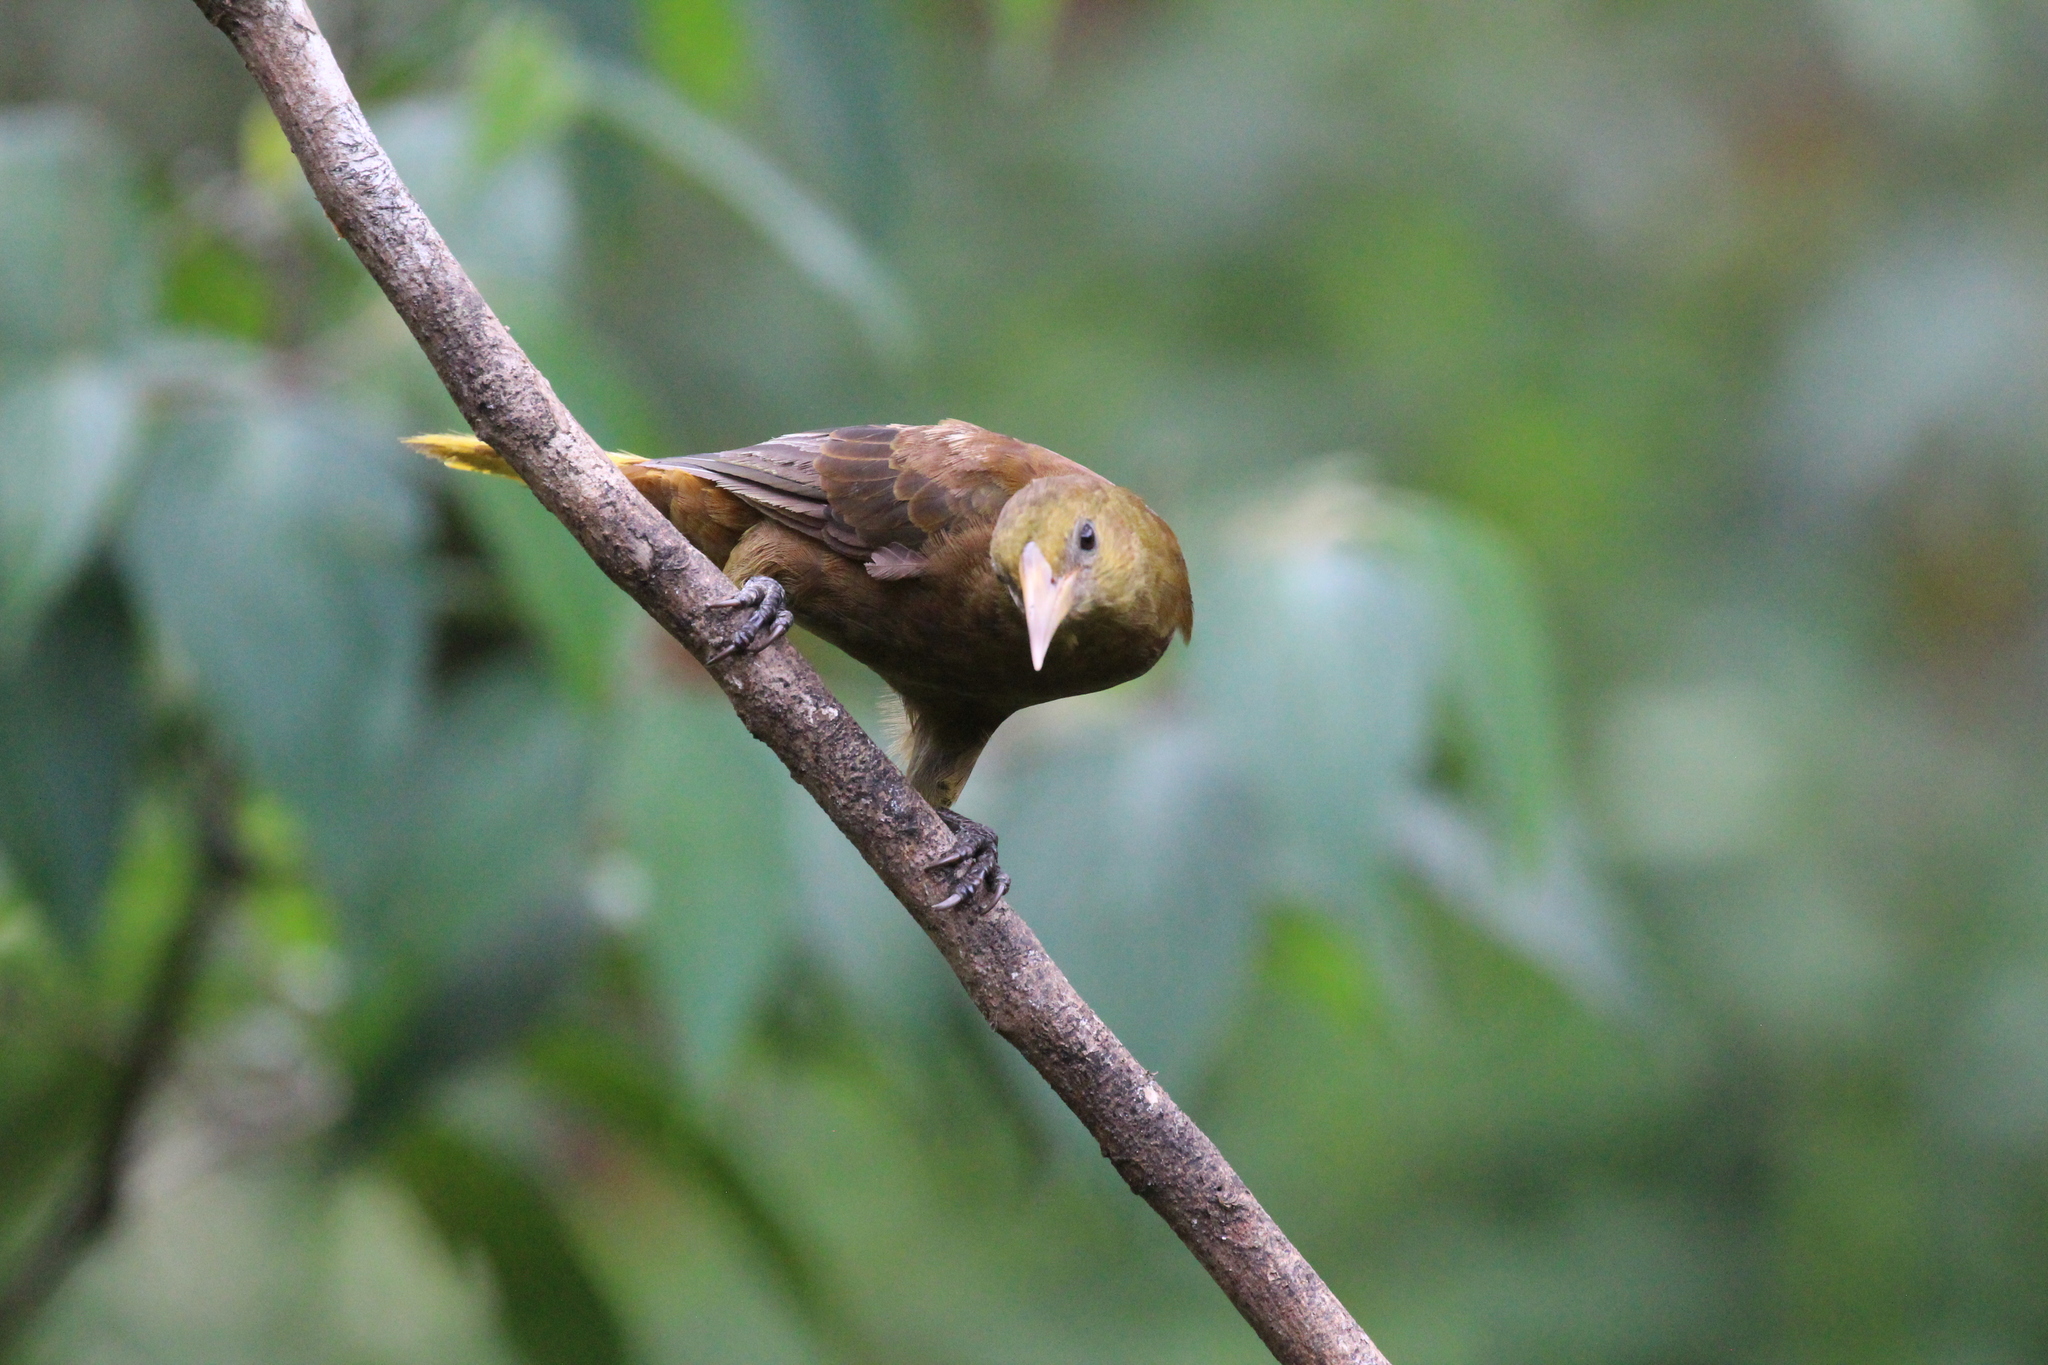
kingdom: Animalia
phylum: Chordata
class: Aves
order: Passeriformes
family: Icteridae
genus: Psarocolius
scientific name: Psarocolius angustifrons
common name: Russet-backed oropendola
